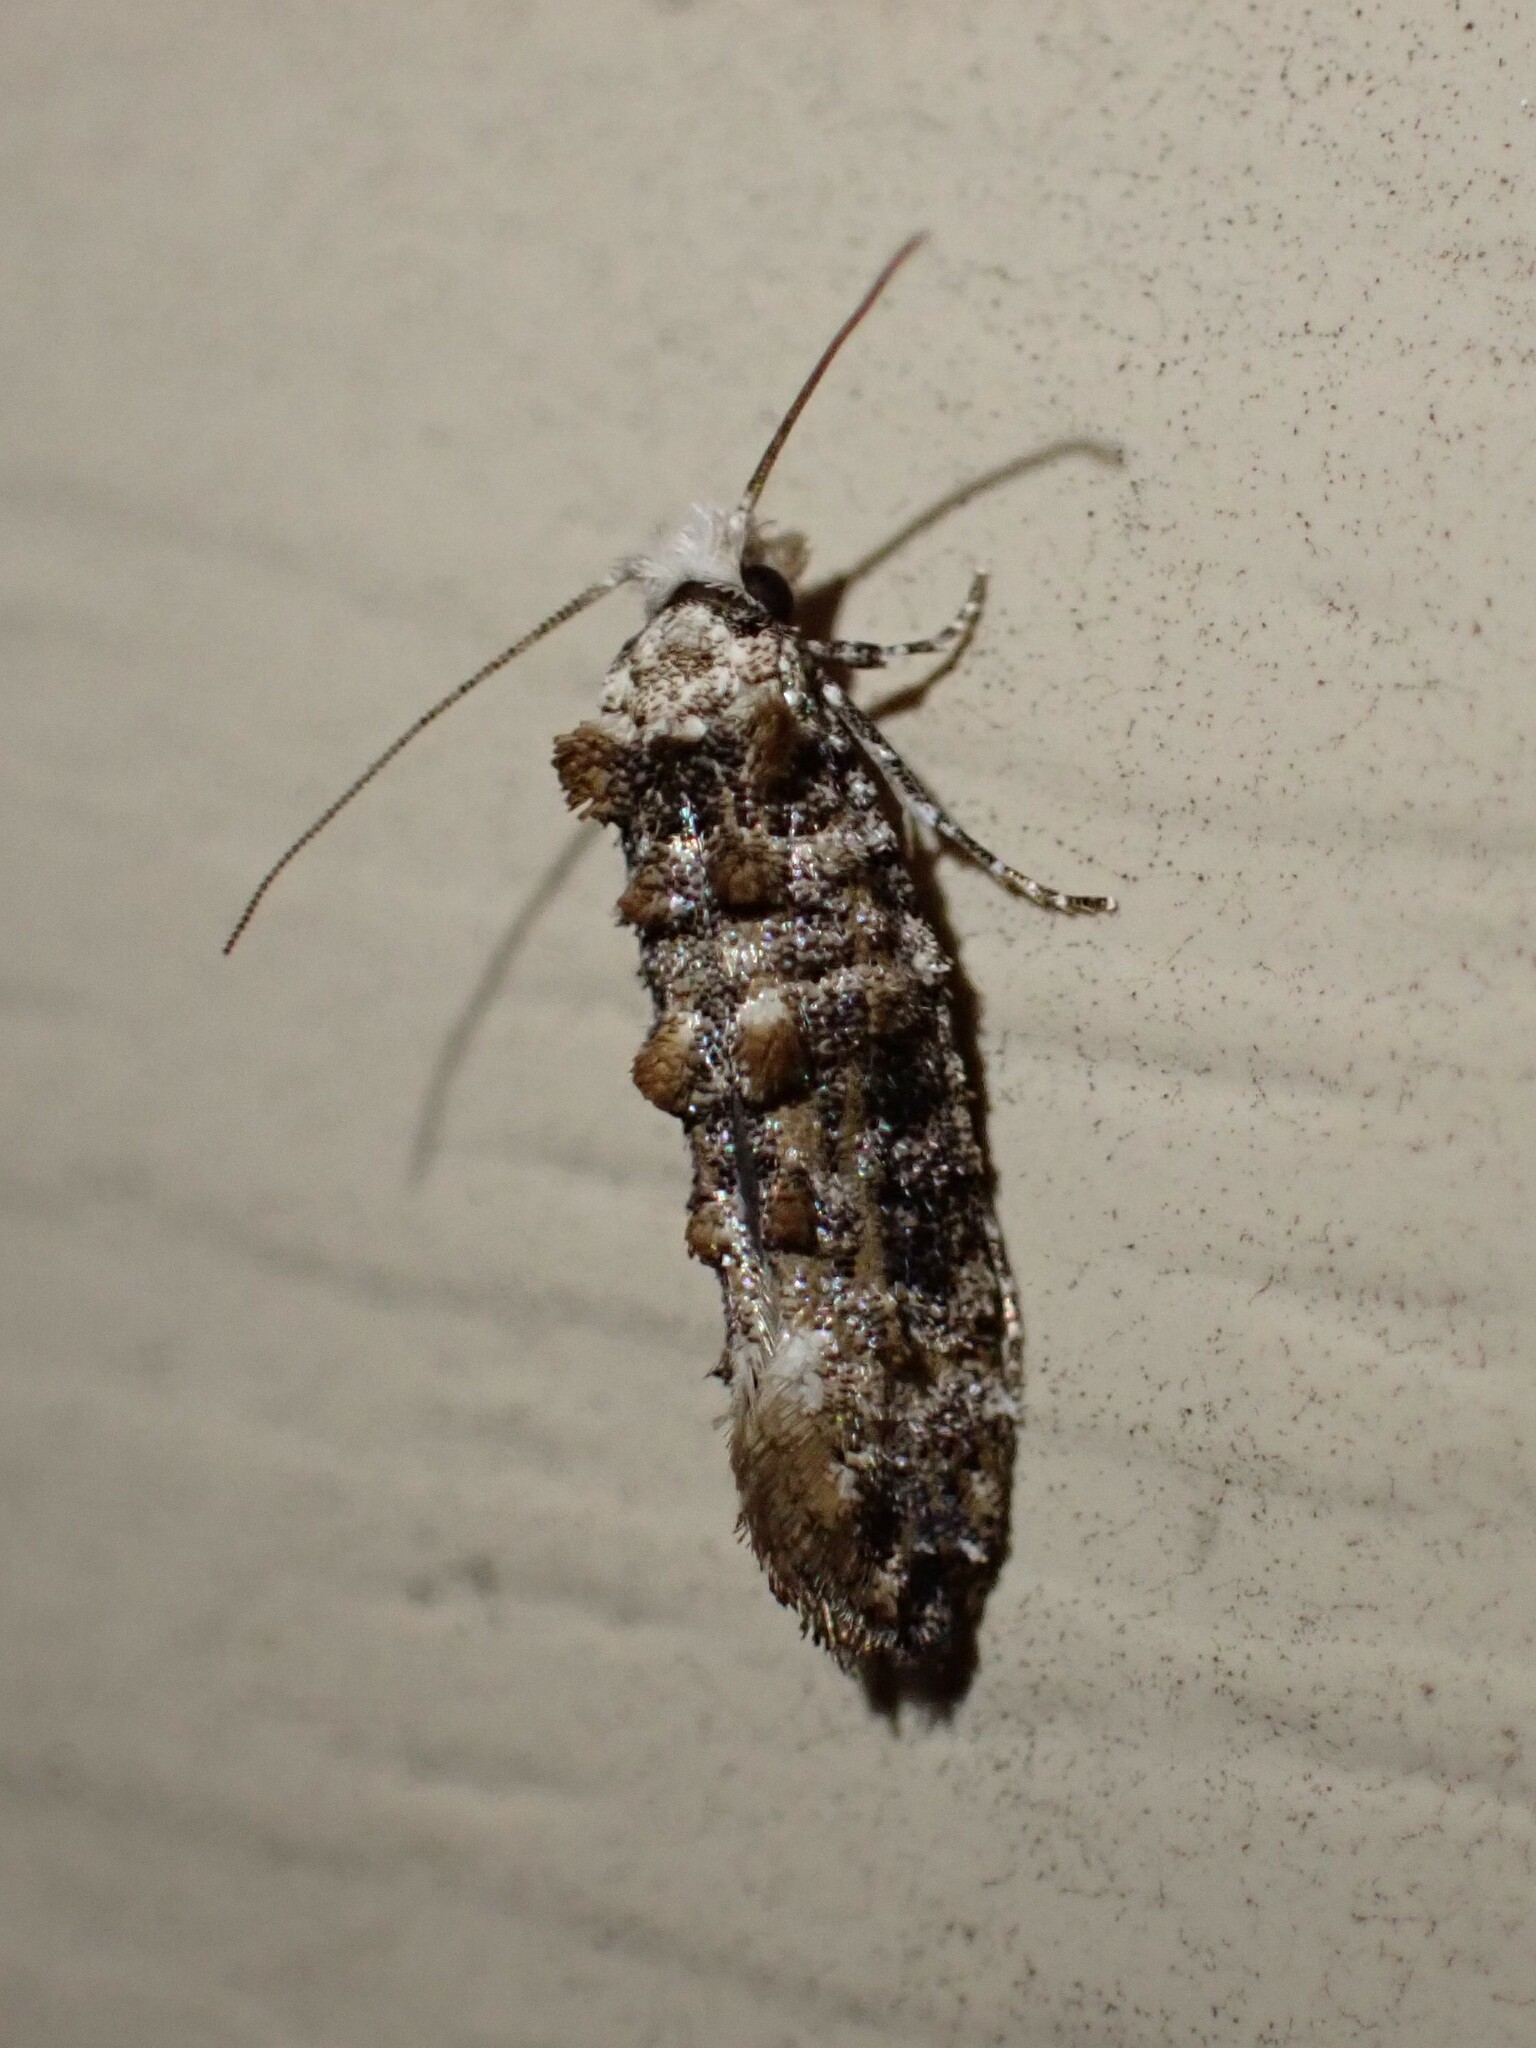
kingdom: Animalia
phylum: Arthropoda
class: Insecta
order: Lepidoptera
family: Tineidae
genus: Xylesthia
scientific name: Xylesthia pruniramiella
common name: Clemens' bark moth
